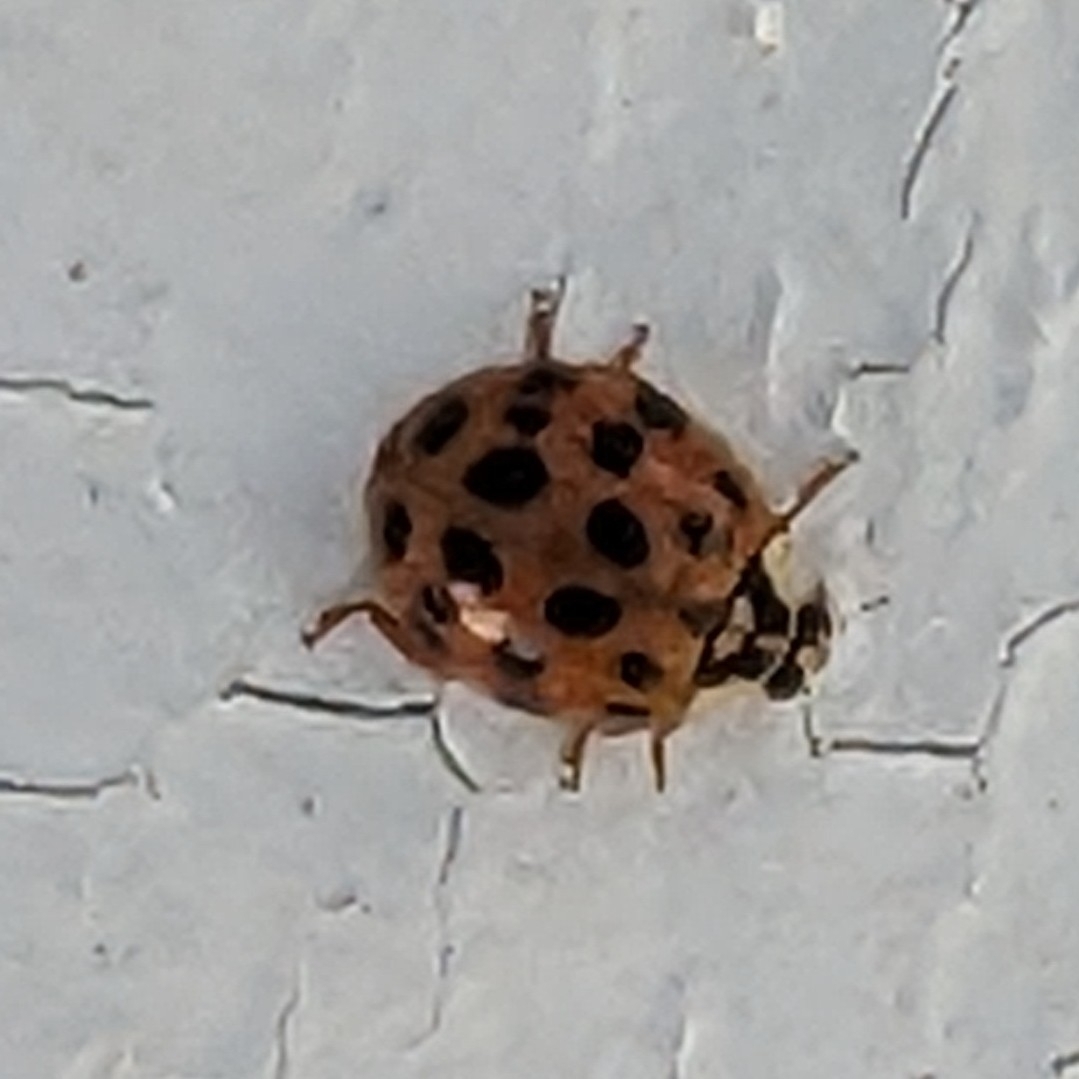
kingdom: Animalia
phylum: Arthropoda
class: Insecta
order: Coleoptera
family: Coccinellidae
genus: Harmonia
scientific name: Harmonia axyridis
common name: Harlequin ladybird
